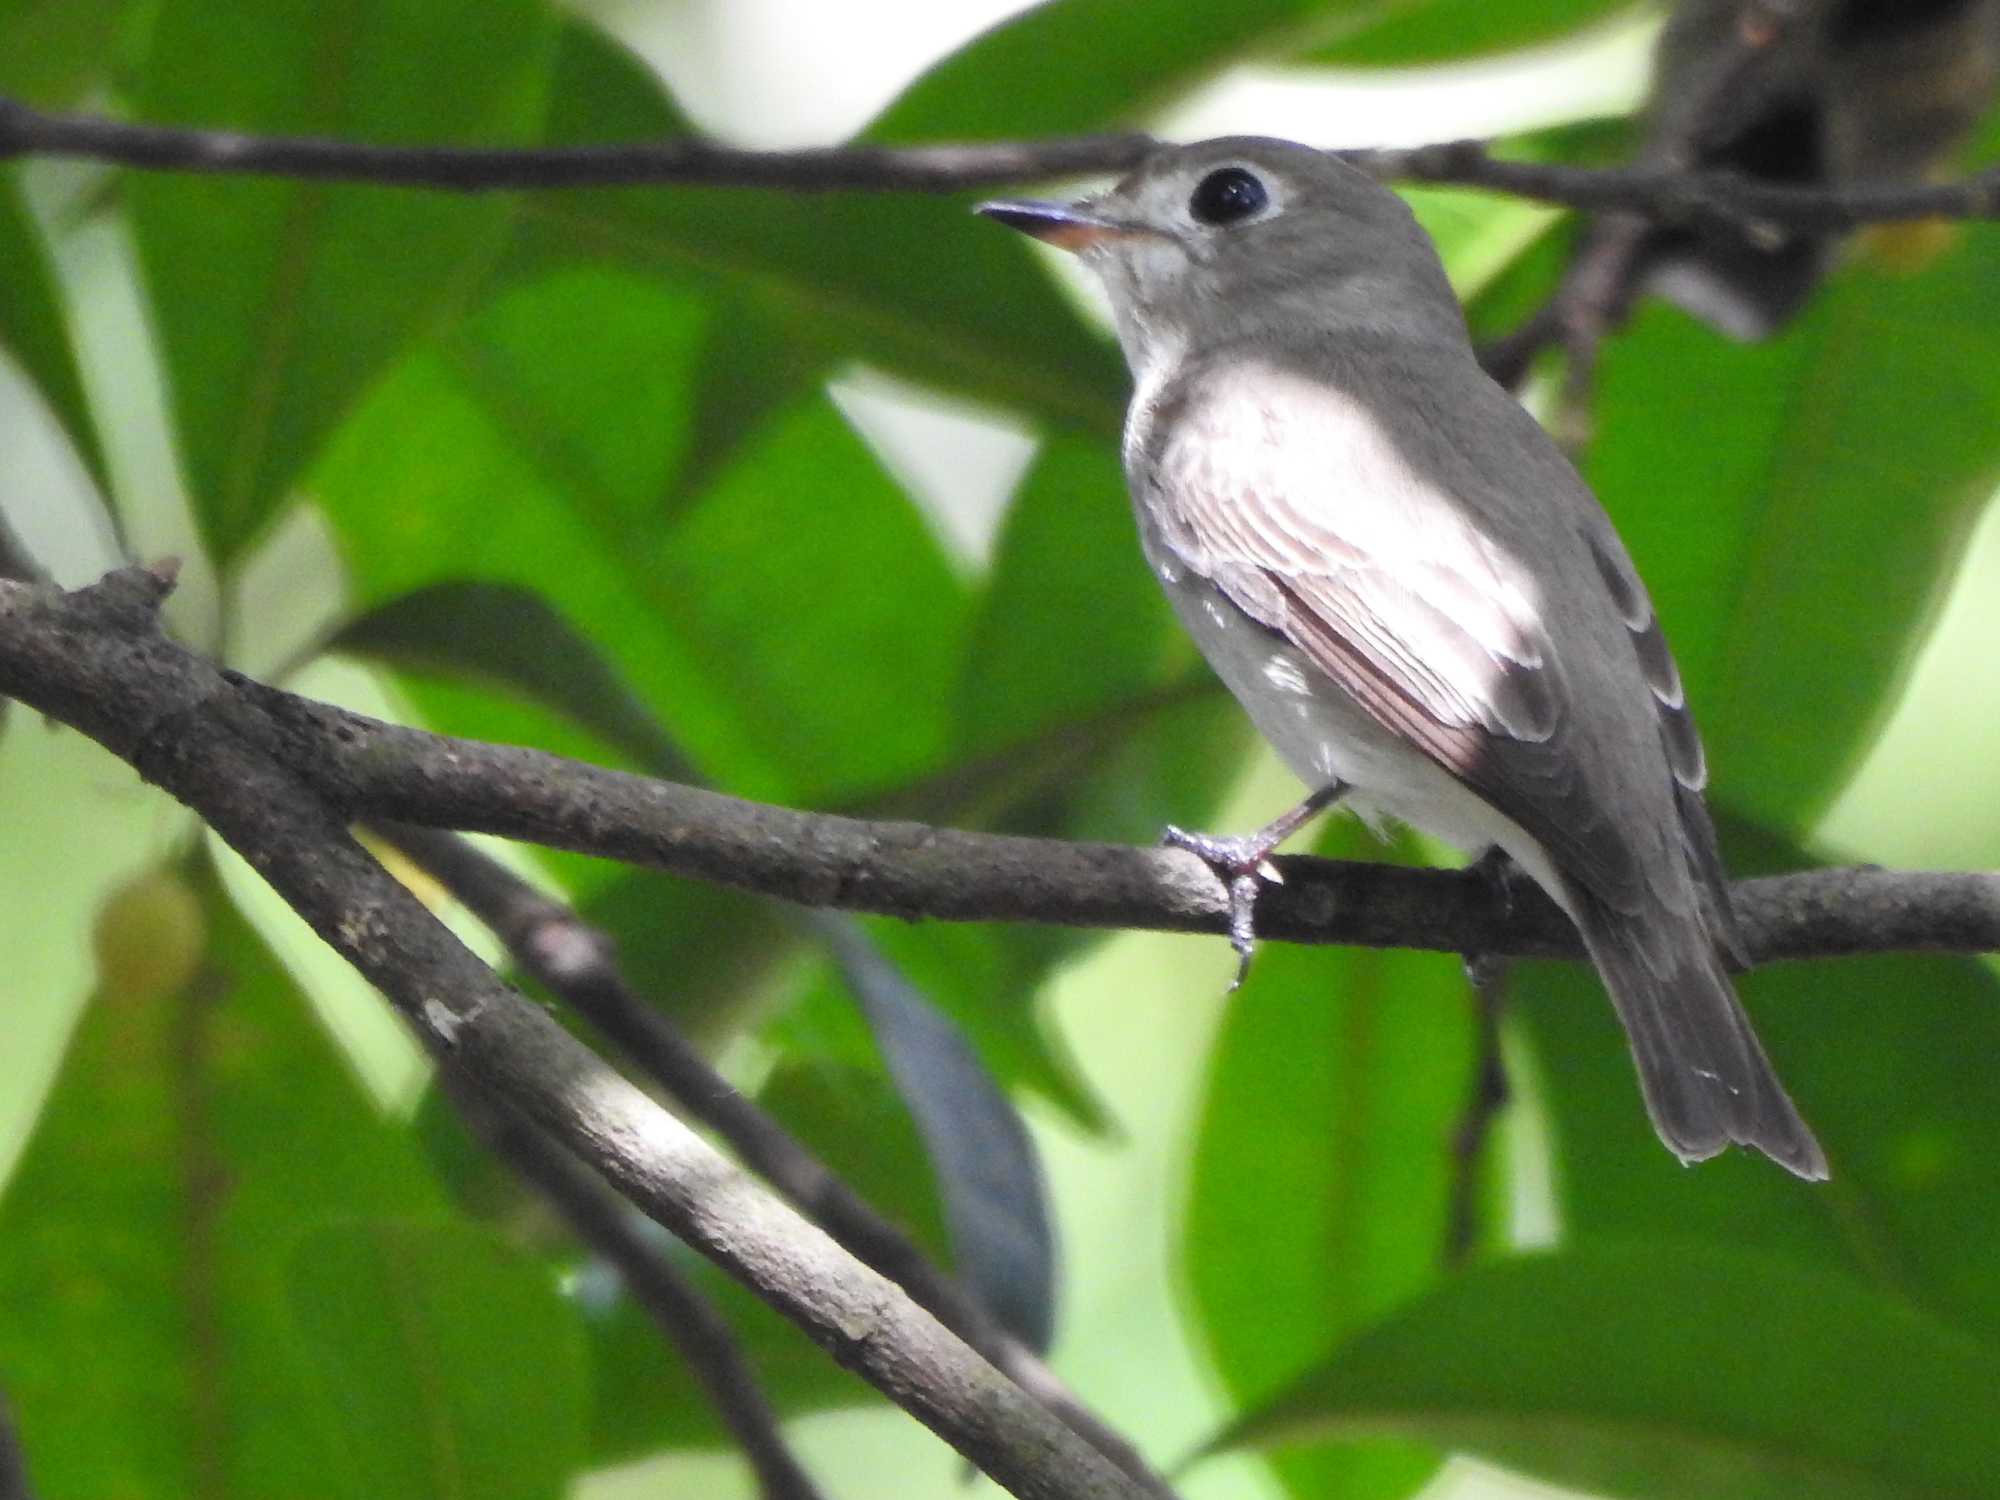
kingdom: Animalia
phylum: Chordata
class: Aves
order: Passeriformes
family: Muscicapidae
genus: Muscicapa
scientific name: Muscicapa latirostris
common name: Asian brown flycatcher
